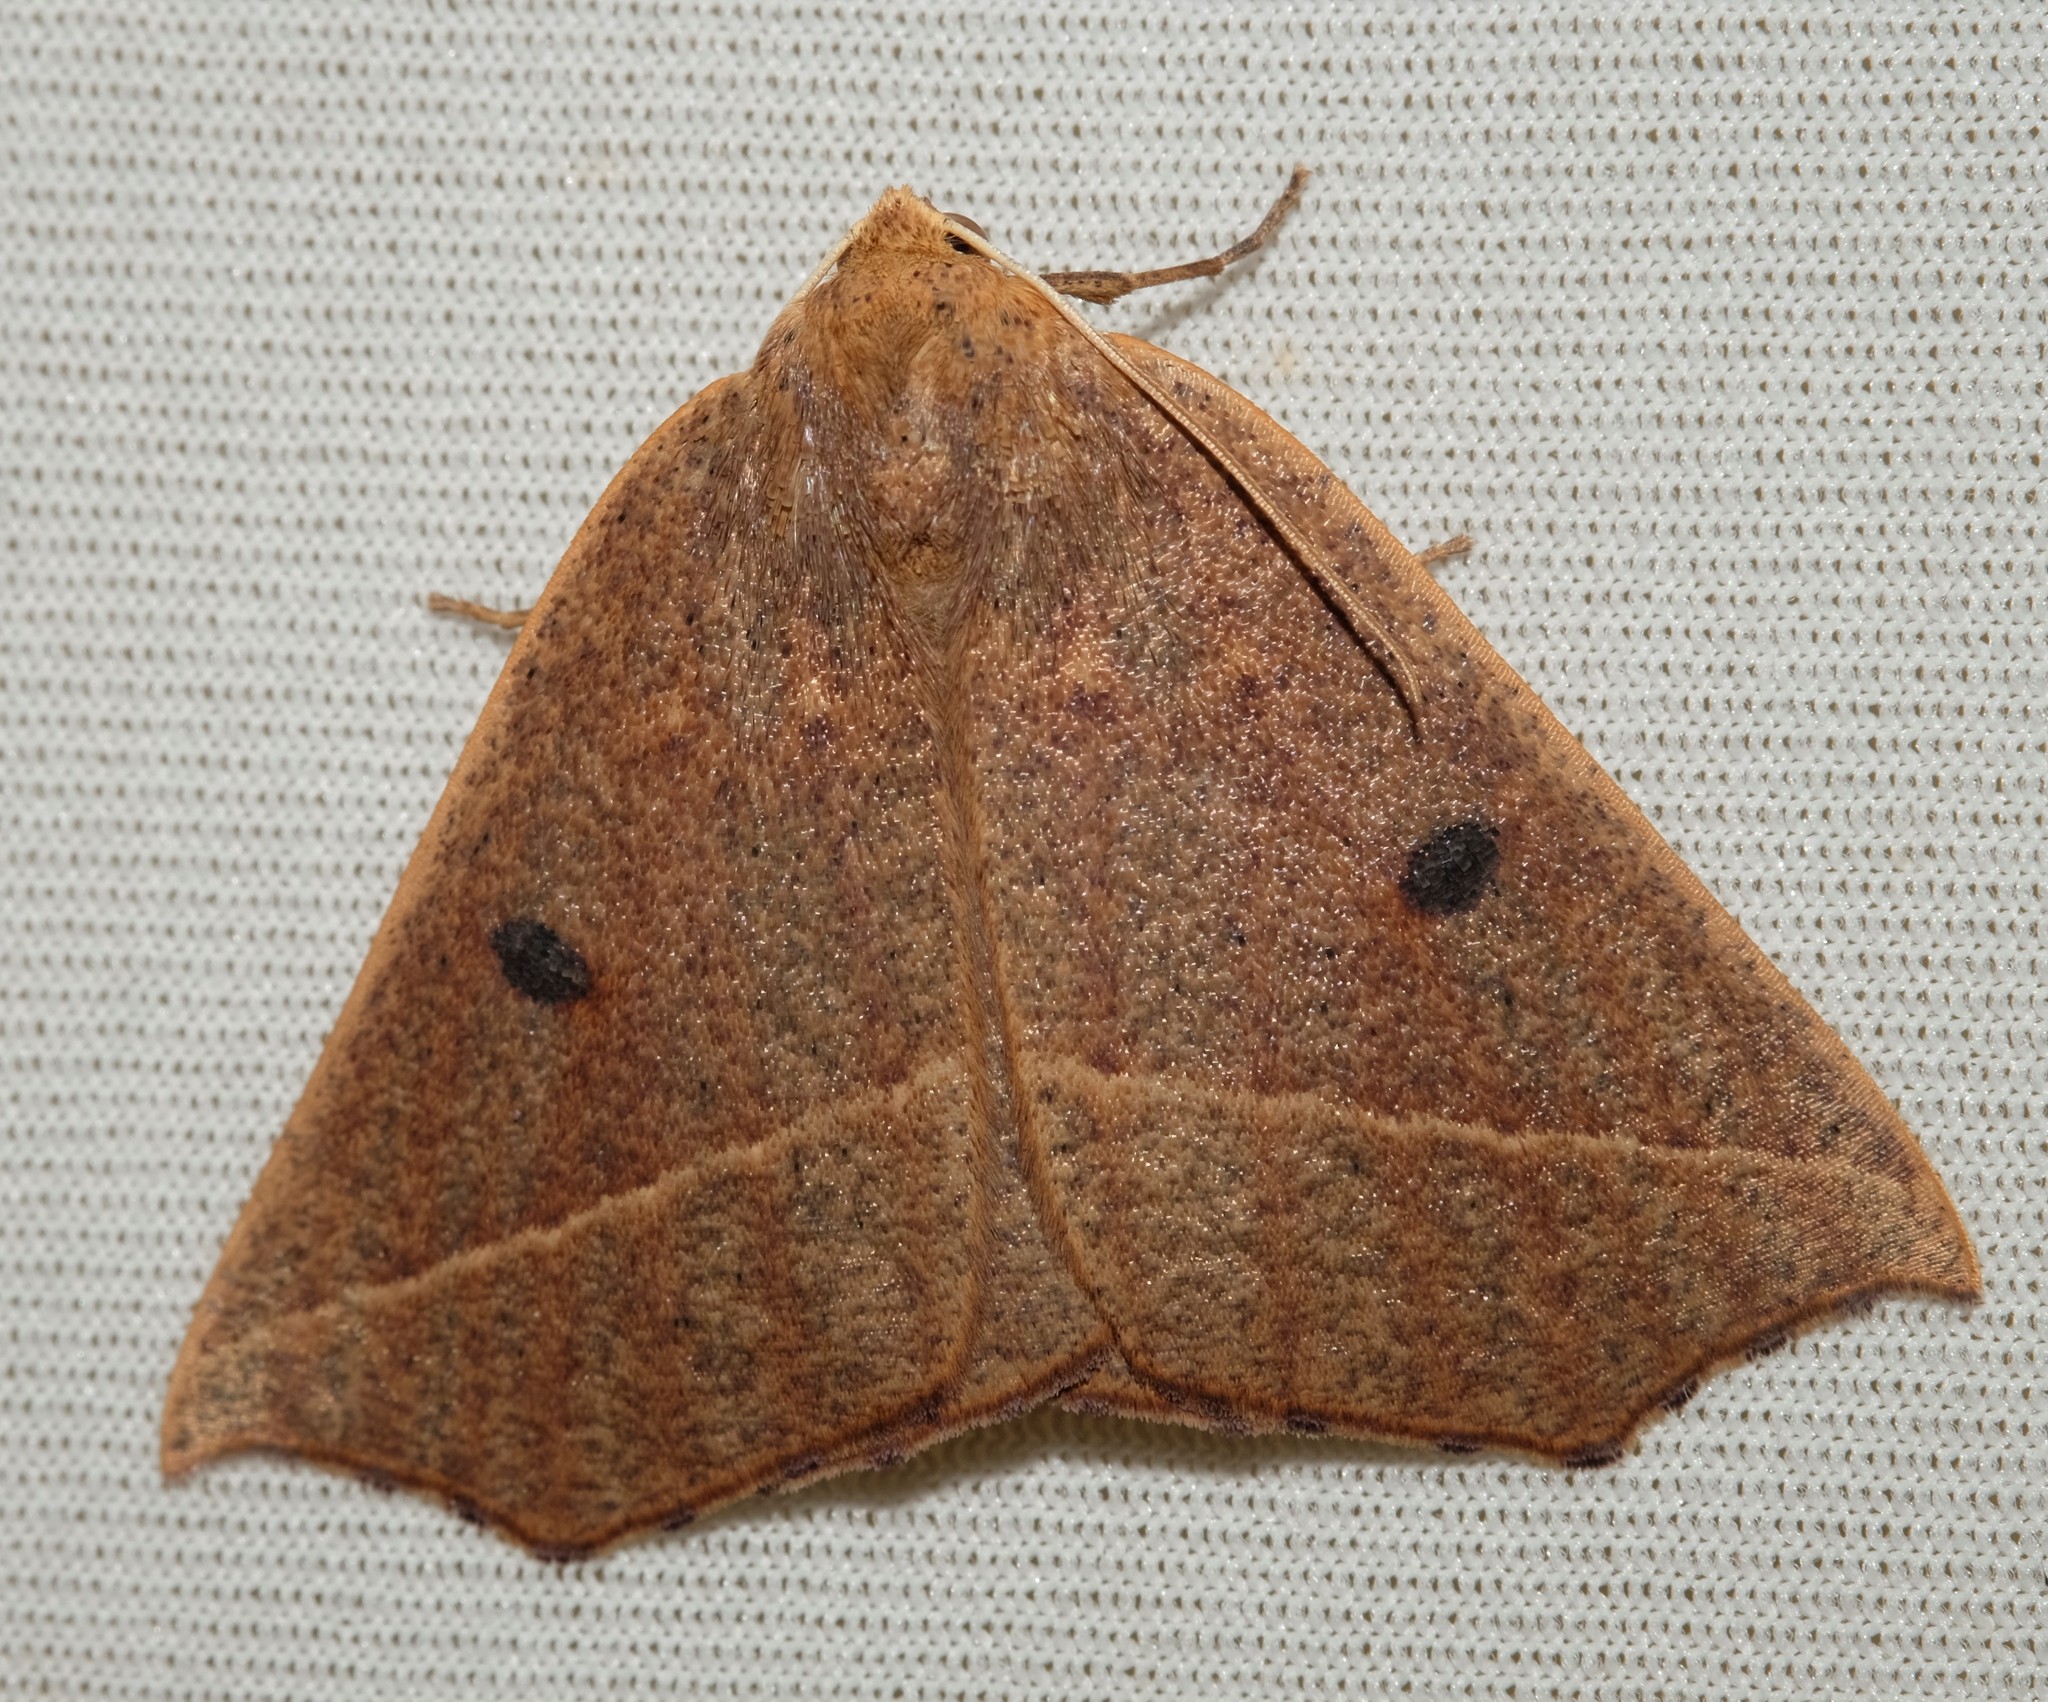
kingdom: Animalia
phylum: Arthropoda
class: Insecta
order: Lepidoptera
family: Geometridae
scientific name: Geometridae
